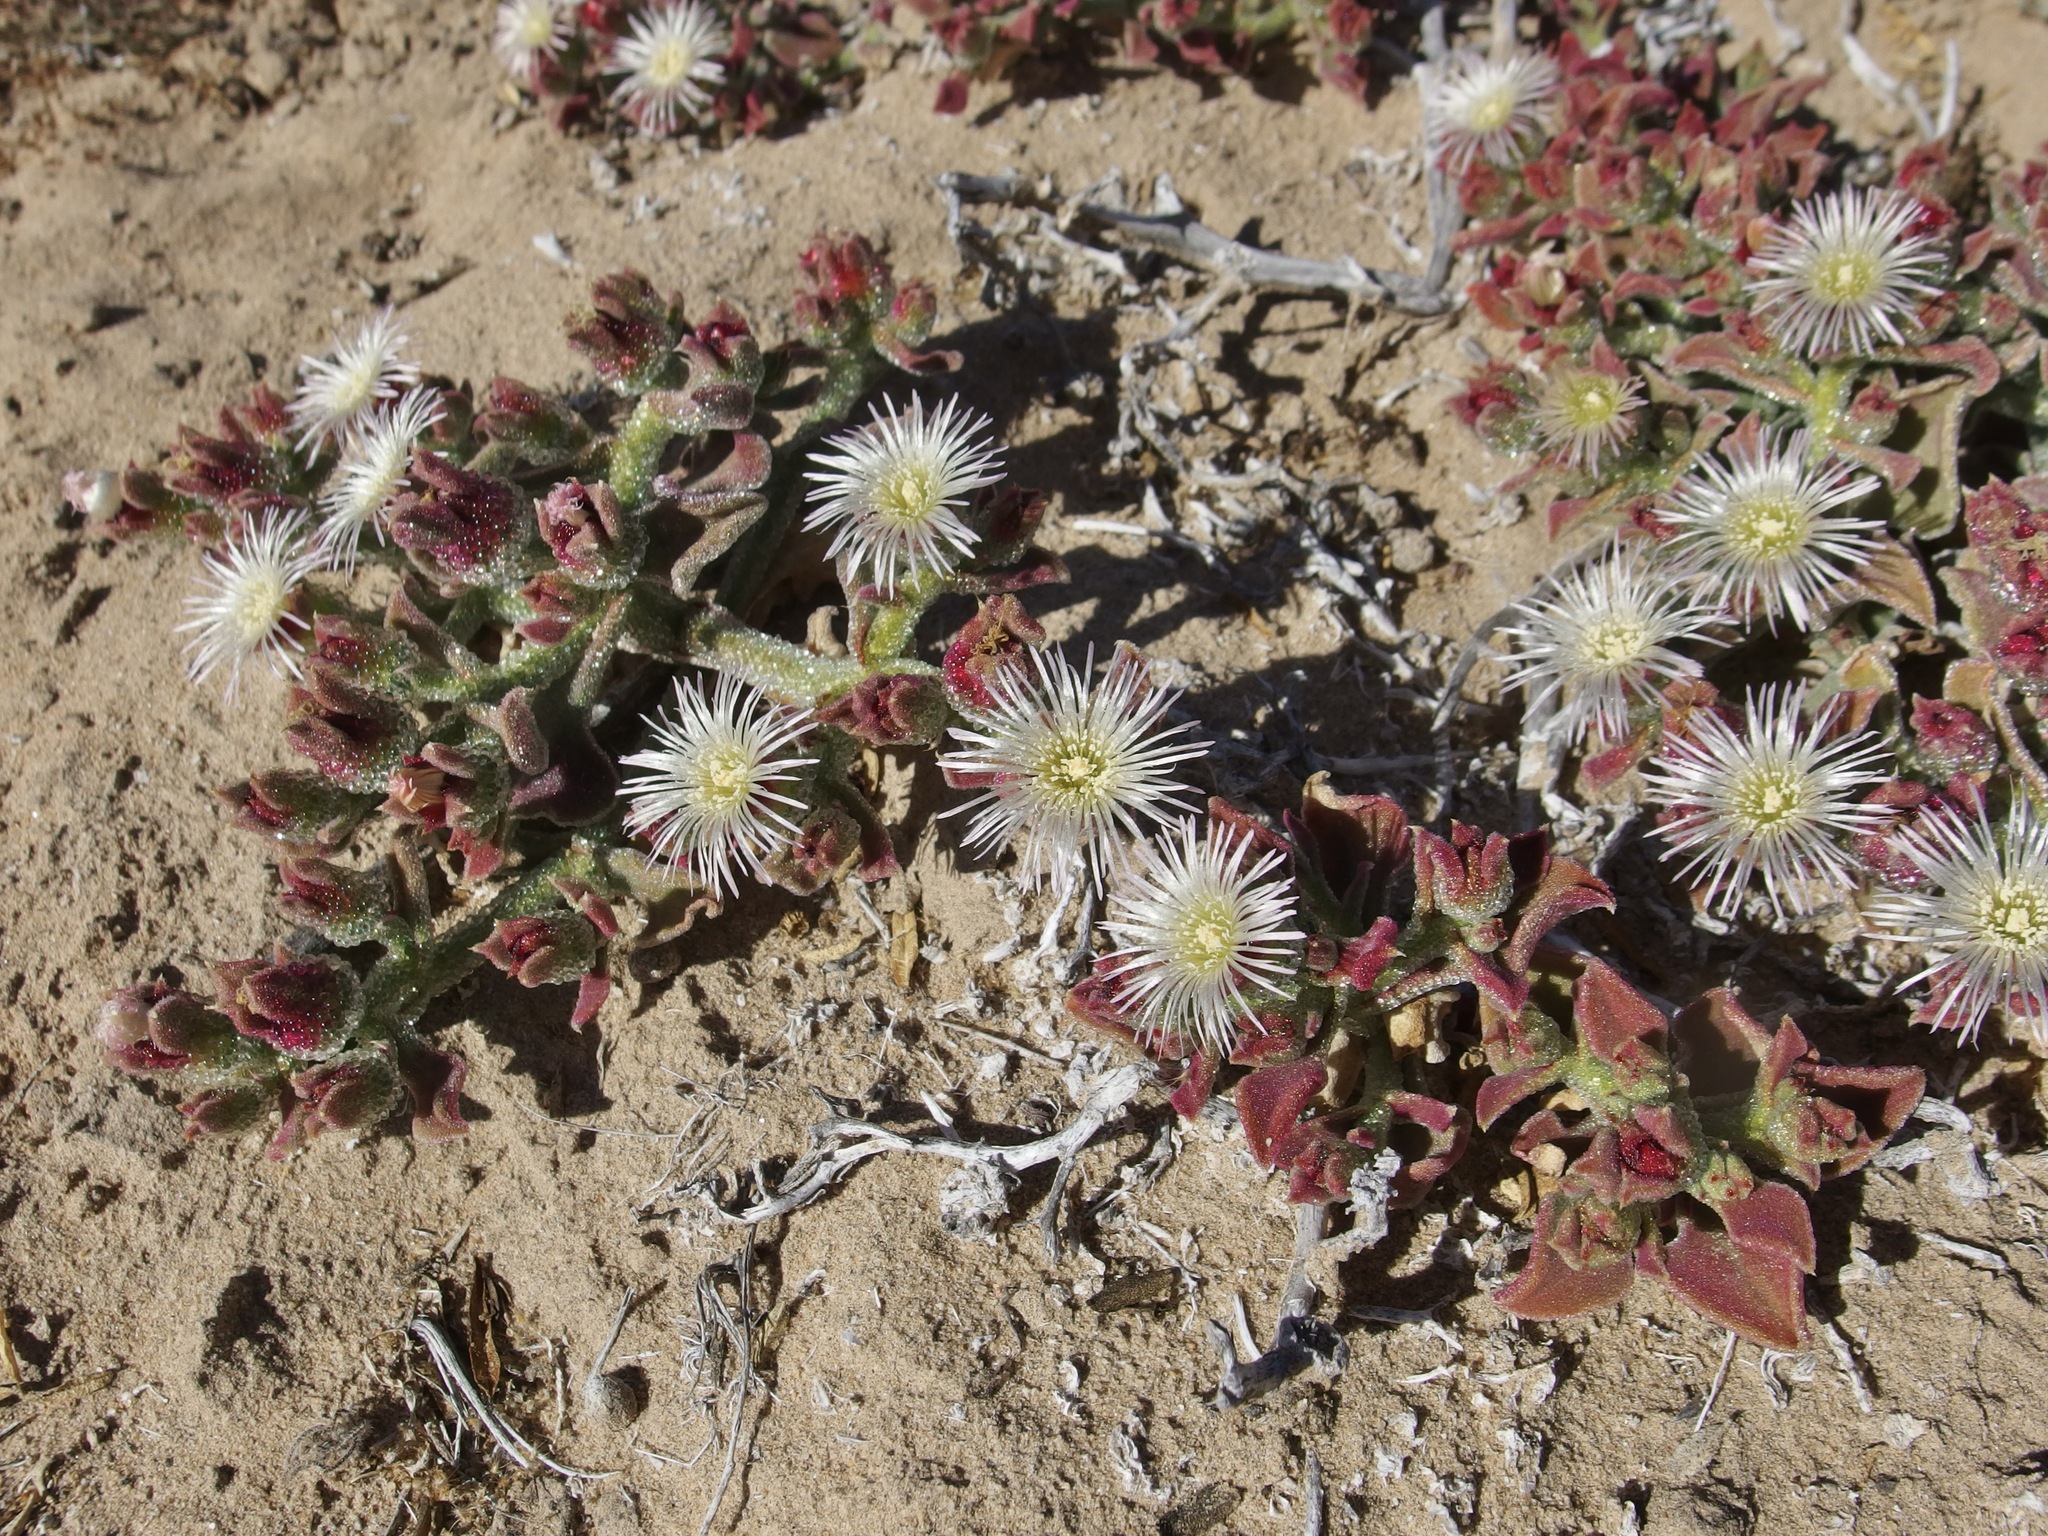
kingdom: Plantae
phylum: Tracheophyta
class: Magnoliopsida
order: Caryophyllales
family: Aizoaceae
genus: Mesembryanthemum
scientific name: Mesembryanthemum crystallinum
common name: Common iceplant
